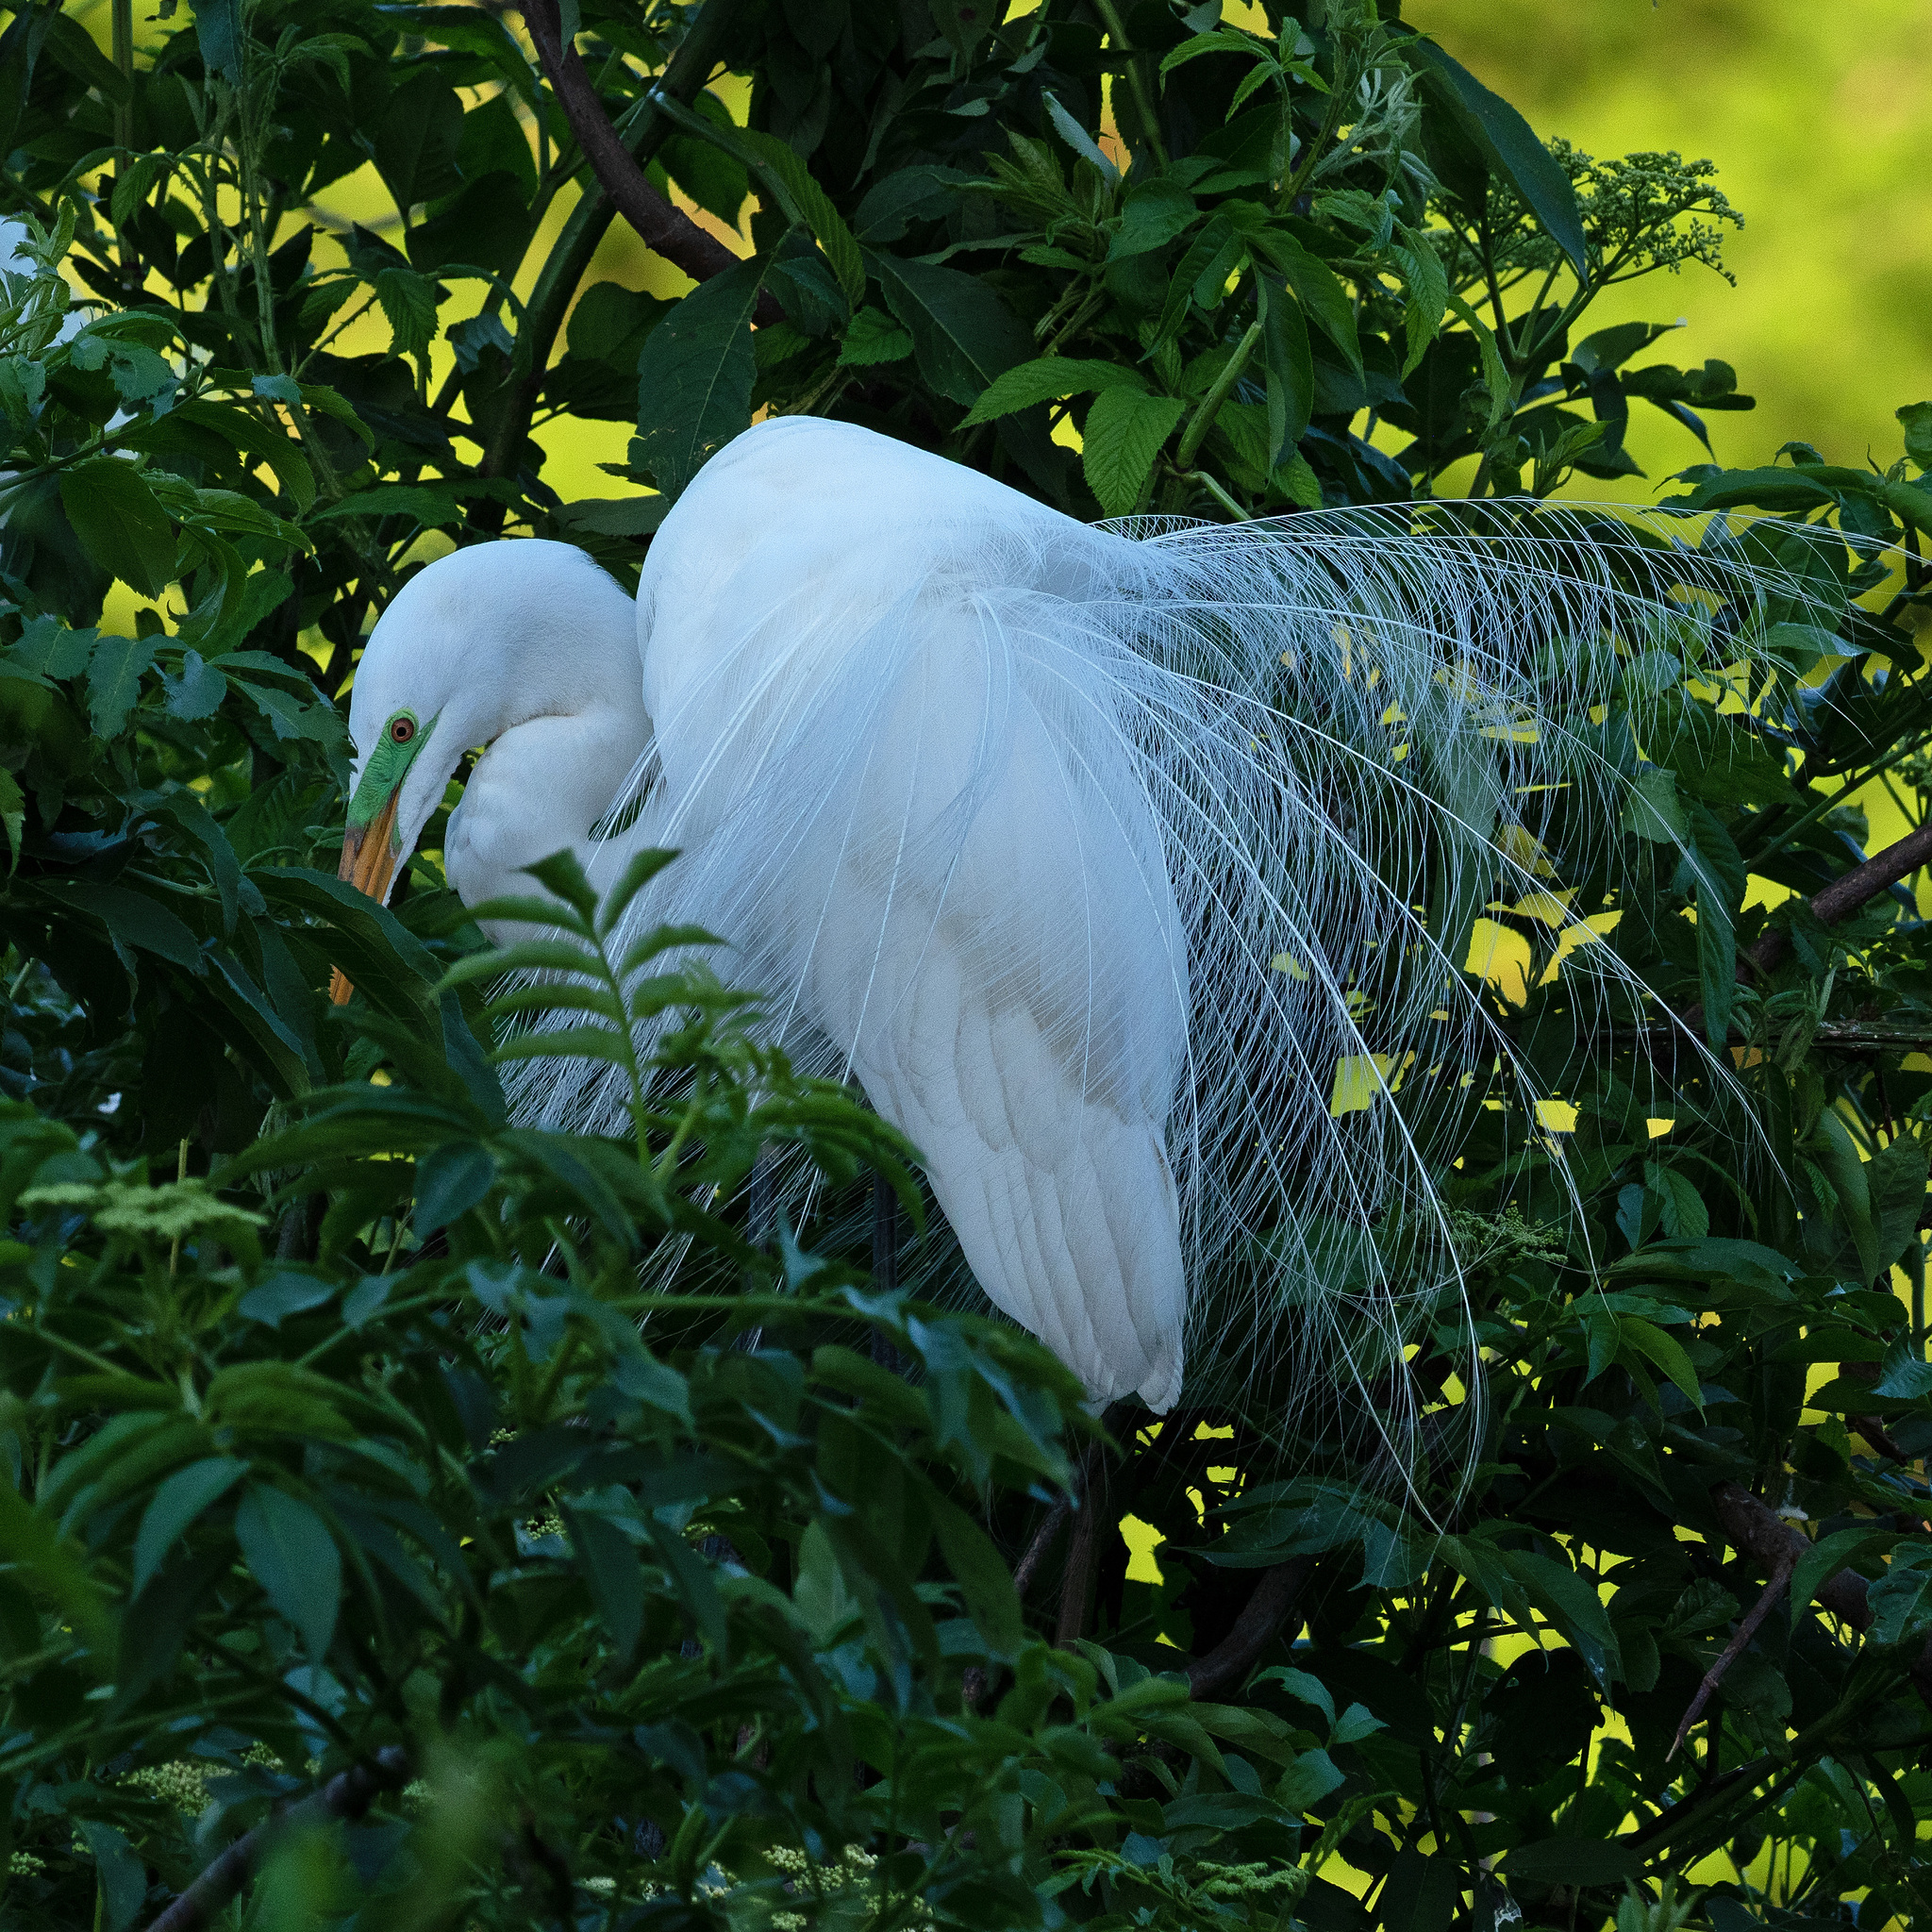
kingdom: Animalia
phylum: Chordata
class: Aves
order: Pelecaniformes
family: Ardeidae
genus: Ardea
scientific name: Ardea alba
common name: Great egret
